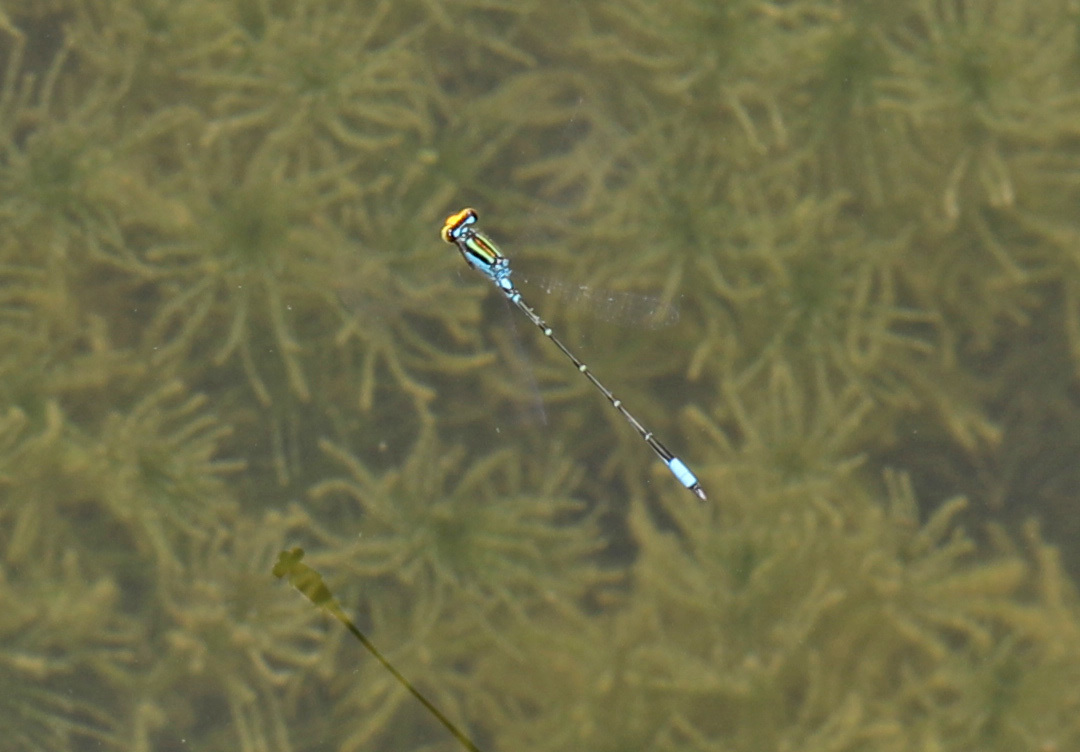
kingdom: Animalia
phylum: Arthropoda
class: Insecta
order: Odonata
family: Coenagrionidae
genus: Neoerythromma
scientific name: Neoerythromma cultellatum
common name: Caribbean yellowface
